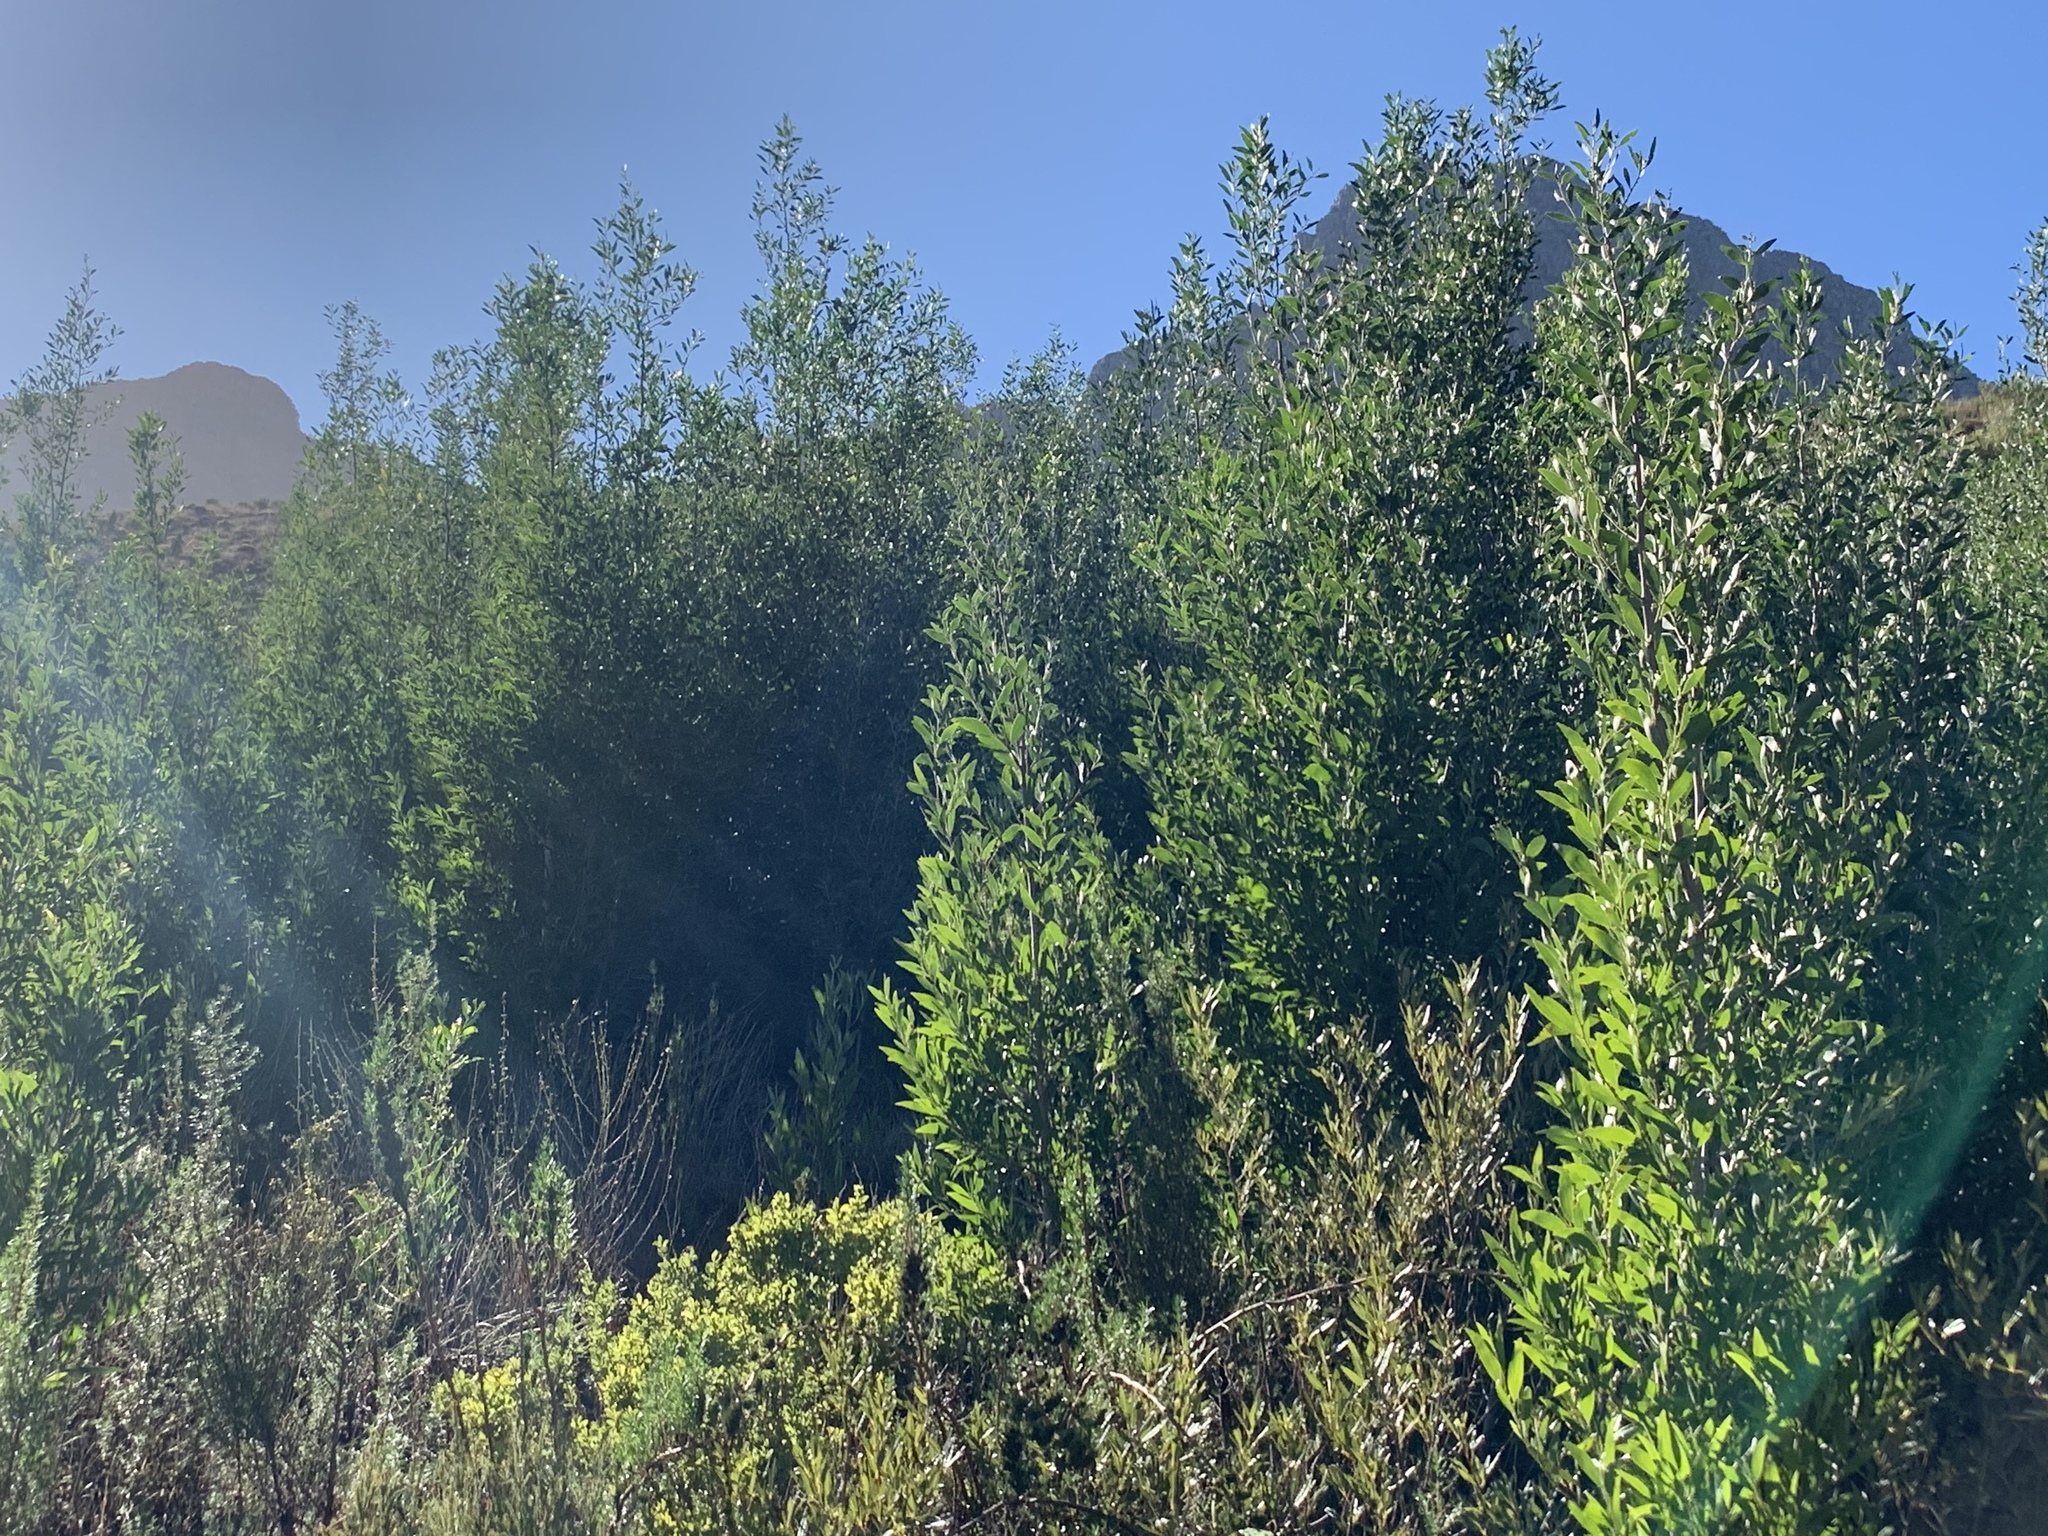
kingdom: Plantae
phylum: Tracheophyta
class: Magnoliopsida
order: Fabales
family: Fabaceae
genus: Acacia
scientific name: Acacia melanoxylon
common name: Blackwood
